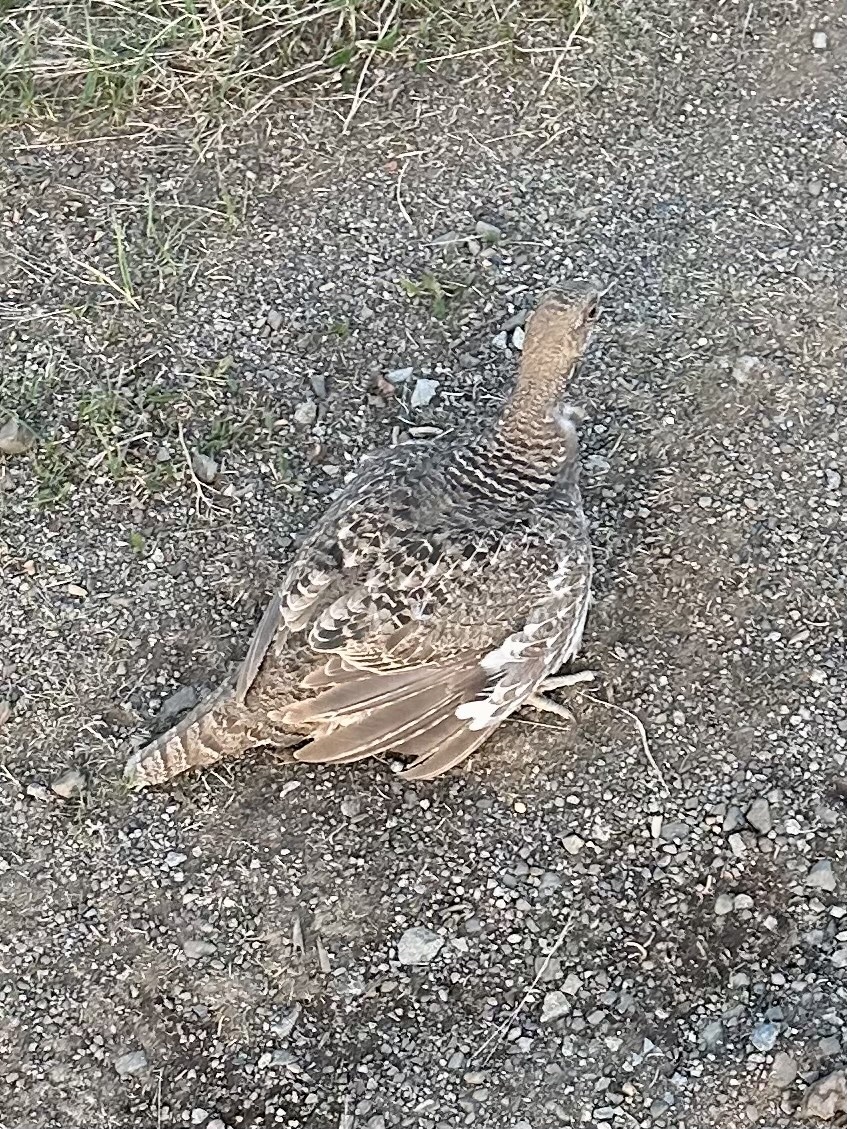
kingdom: Animalia
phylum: Chordata
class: Aves
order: Galliformes
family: Phasianidae
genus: Dendragapus
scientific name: Dendragapus fuliginosus
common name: Sooty grouse
